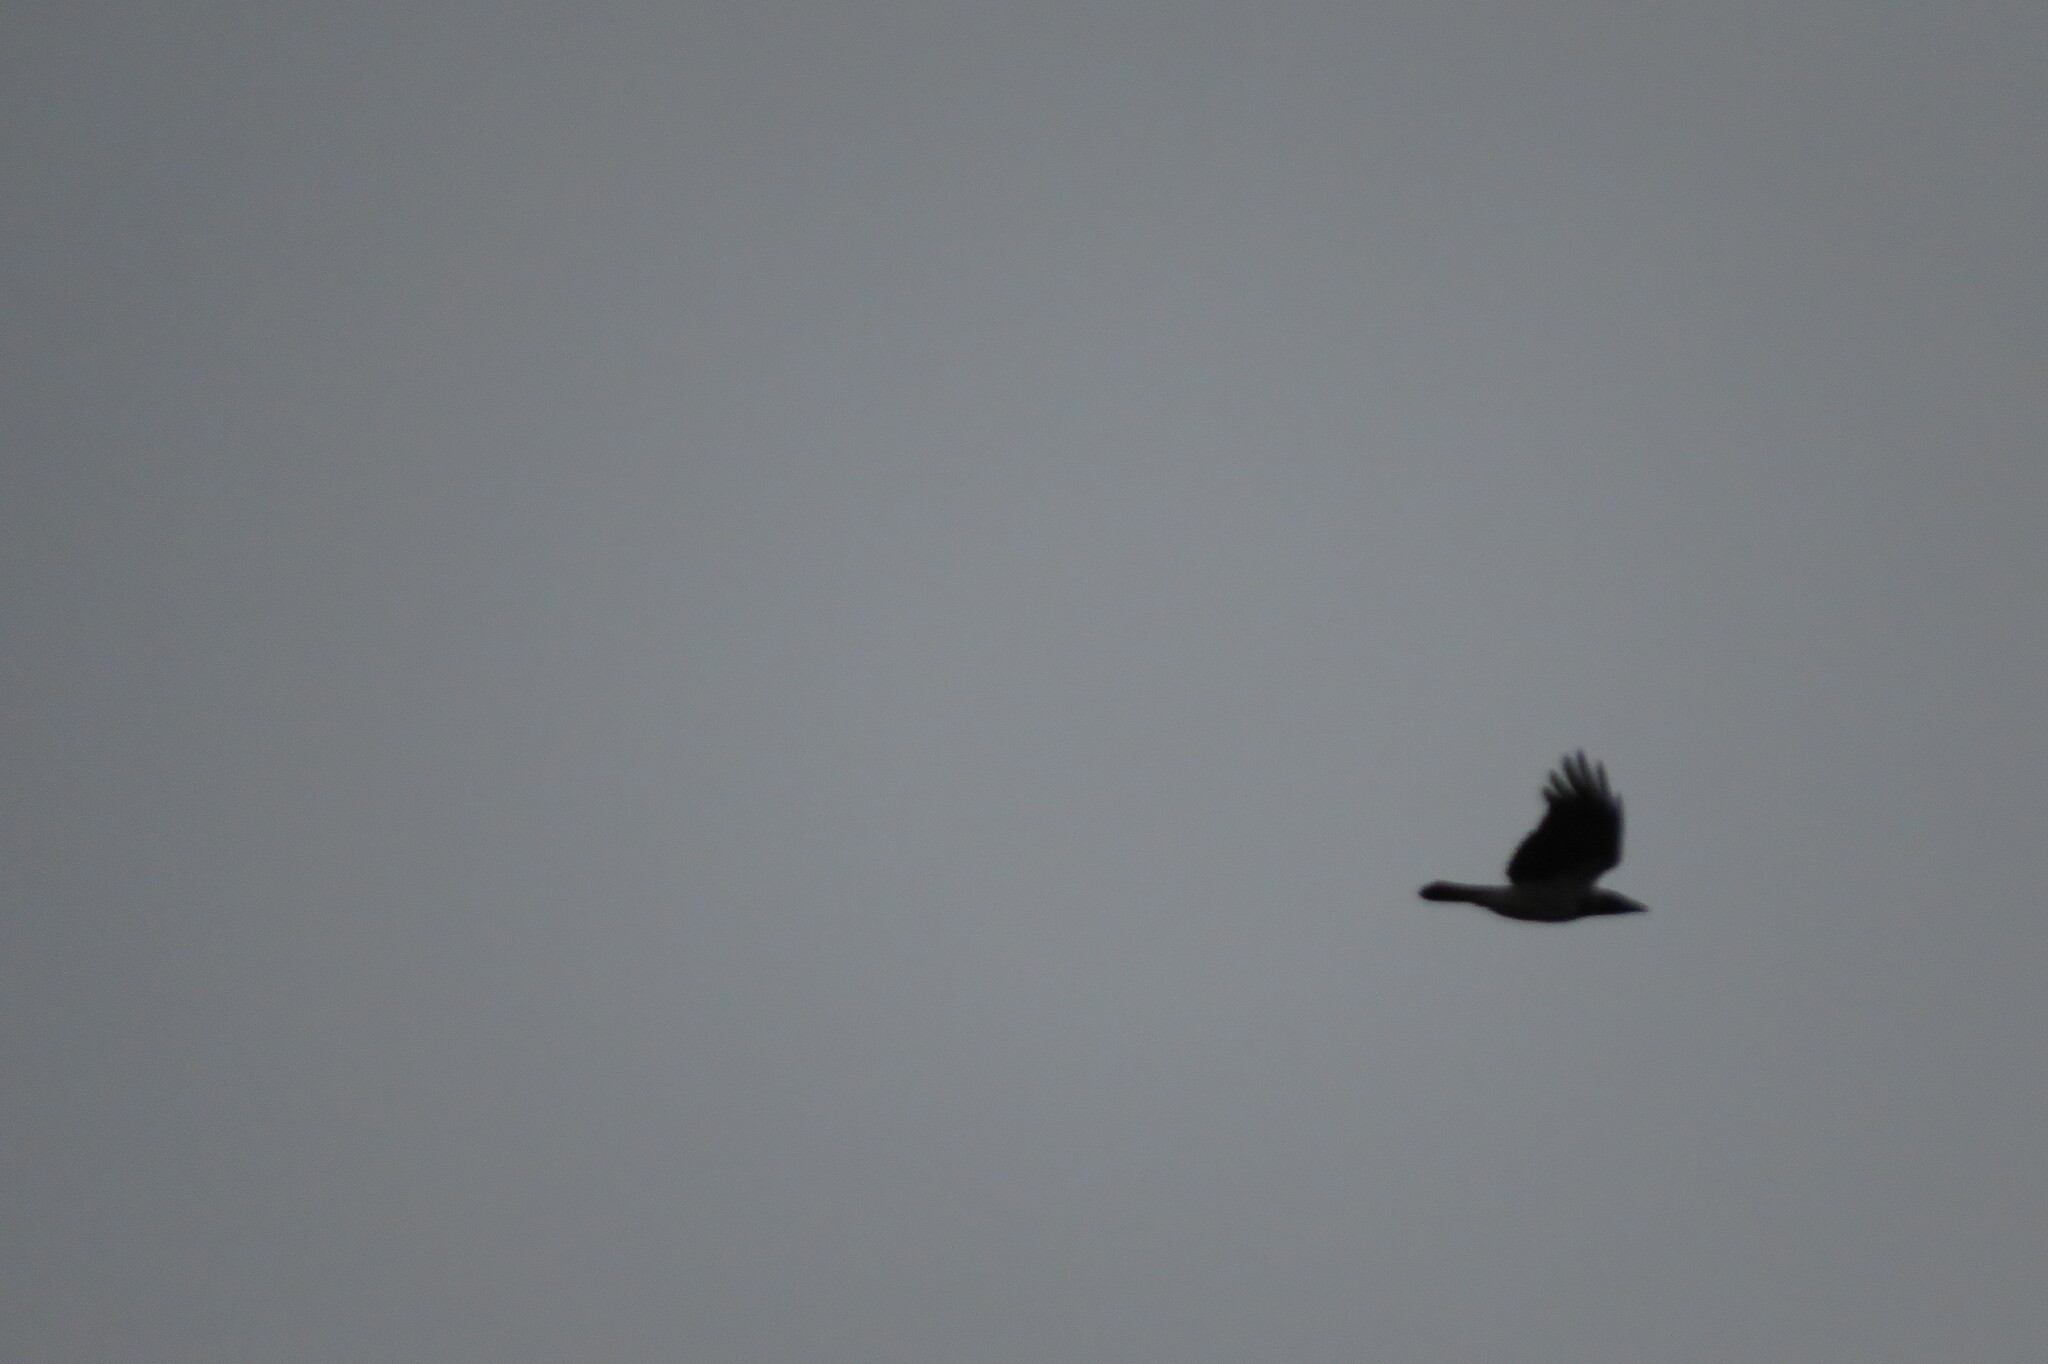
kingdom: Animalia
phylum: Chordata
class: Aves
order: Passeriformes
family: Corvidae
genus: Corvus
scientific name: Corvus cornix
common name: Hooded crow
